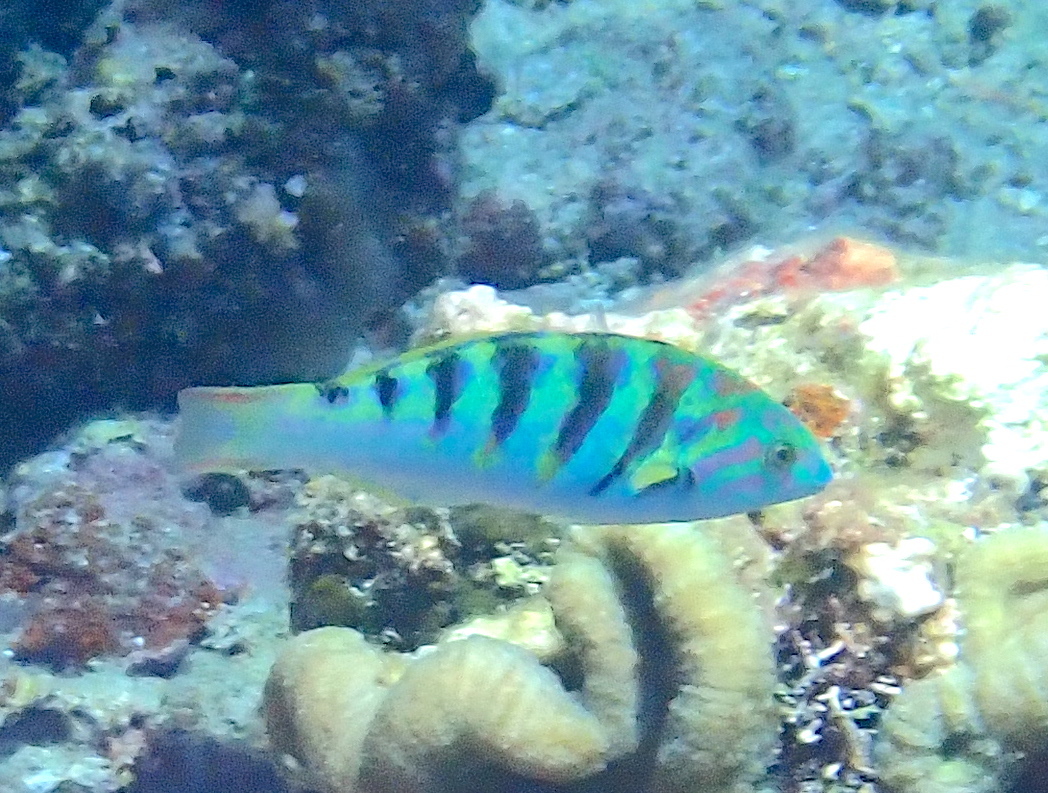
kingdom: Animalia
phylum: Chordata
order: Perciformes
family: Labridae
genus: Thalassoma
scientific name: Thalassoma hardwicke
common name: Sixbar wrasse
